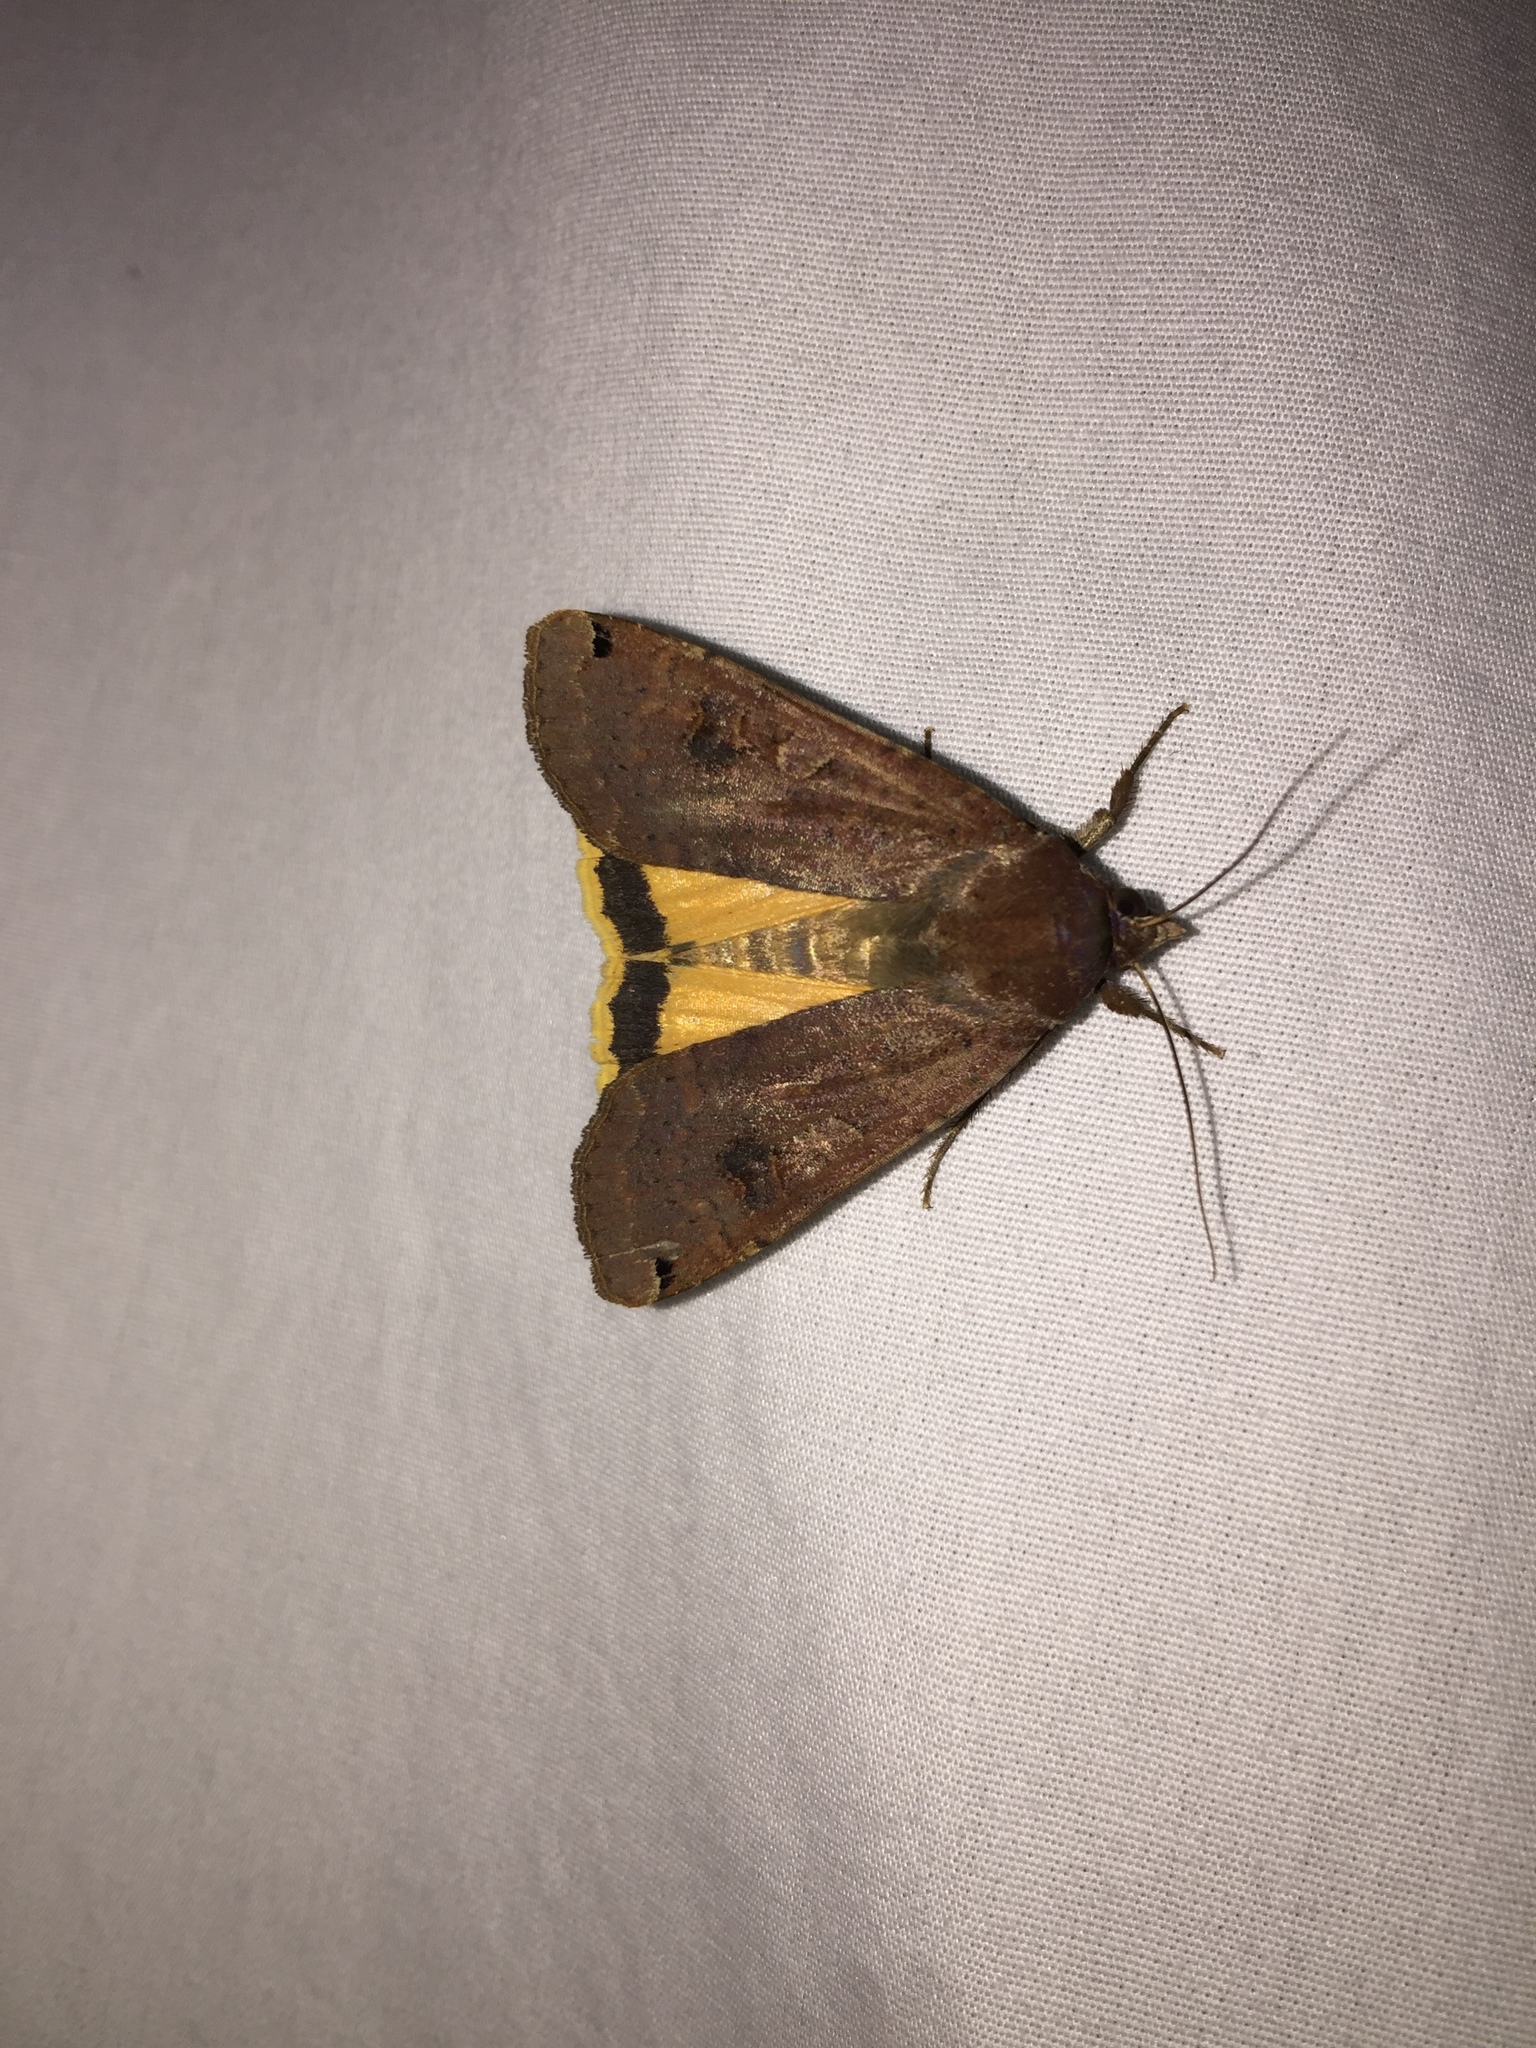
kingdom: Animalia
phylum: Arthropoda
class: Insecta
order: Lepidoptera
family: Noctuidae
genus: Noctua
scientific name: Noctua pronuba
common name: Large yellow underwing
